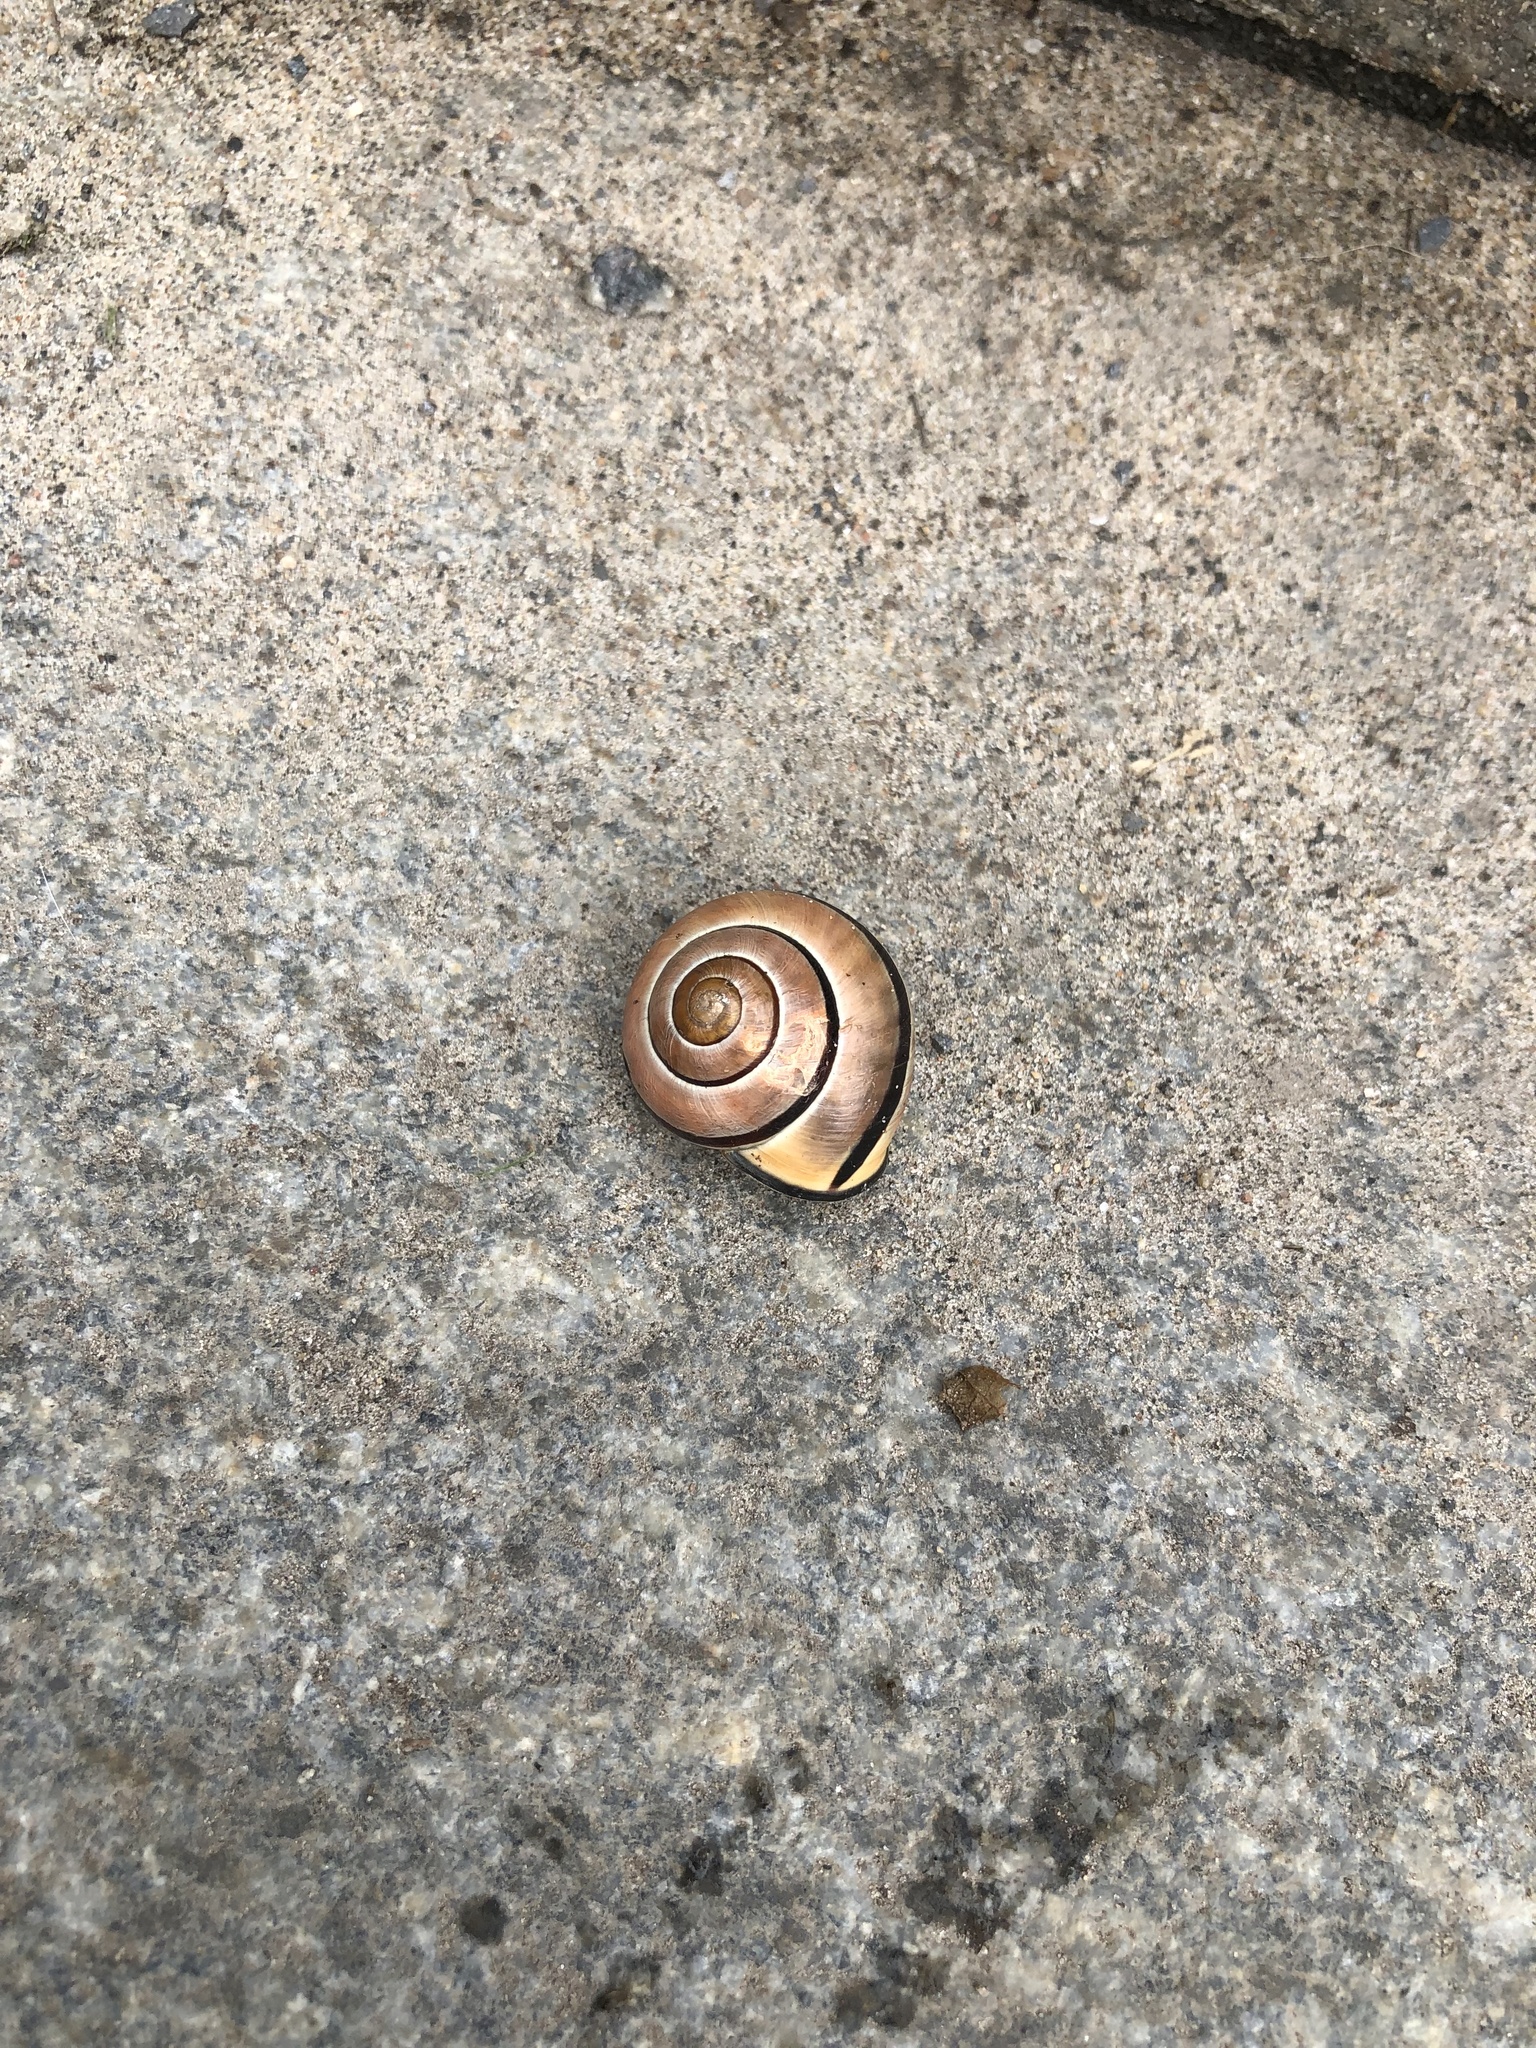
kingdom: Animalia
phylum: Mollusca
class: Gastropoda
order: Stylommatophora
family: Helicidae
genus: Cepaea
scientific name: Cepaea nemoralis
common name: Grovesnail
